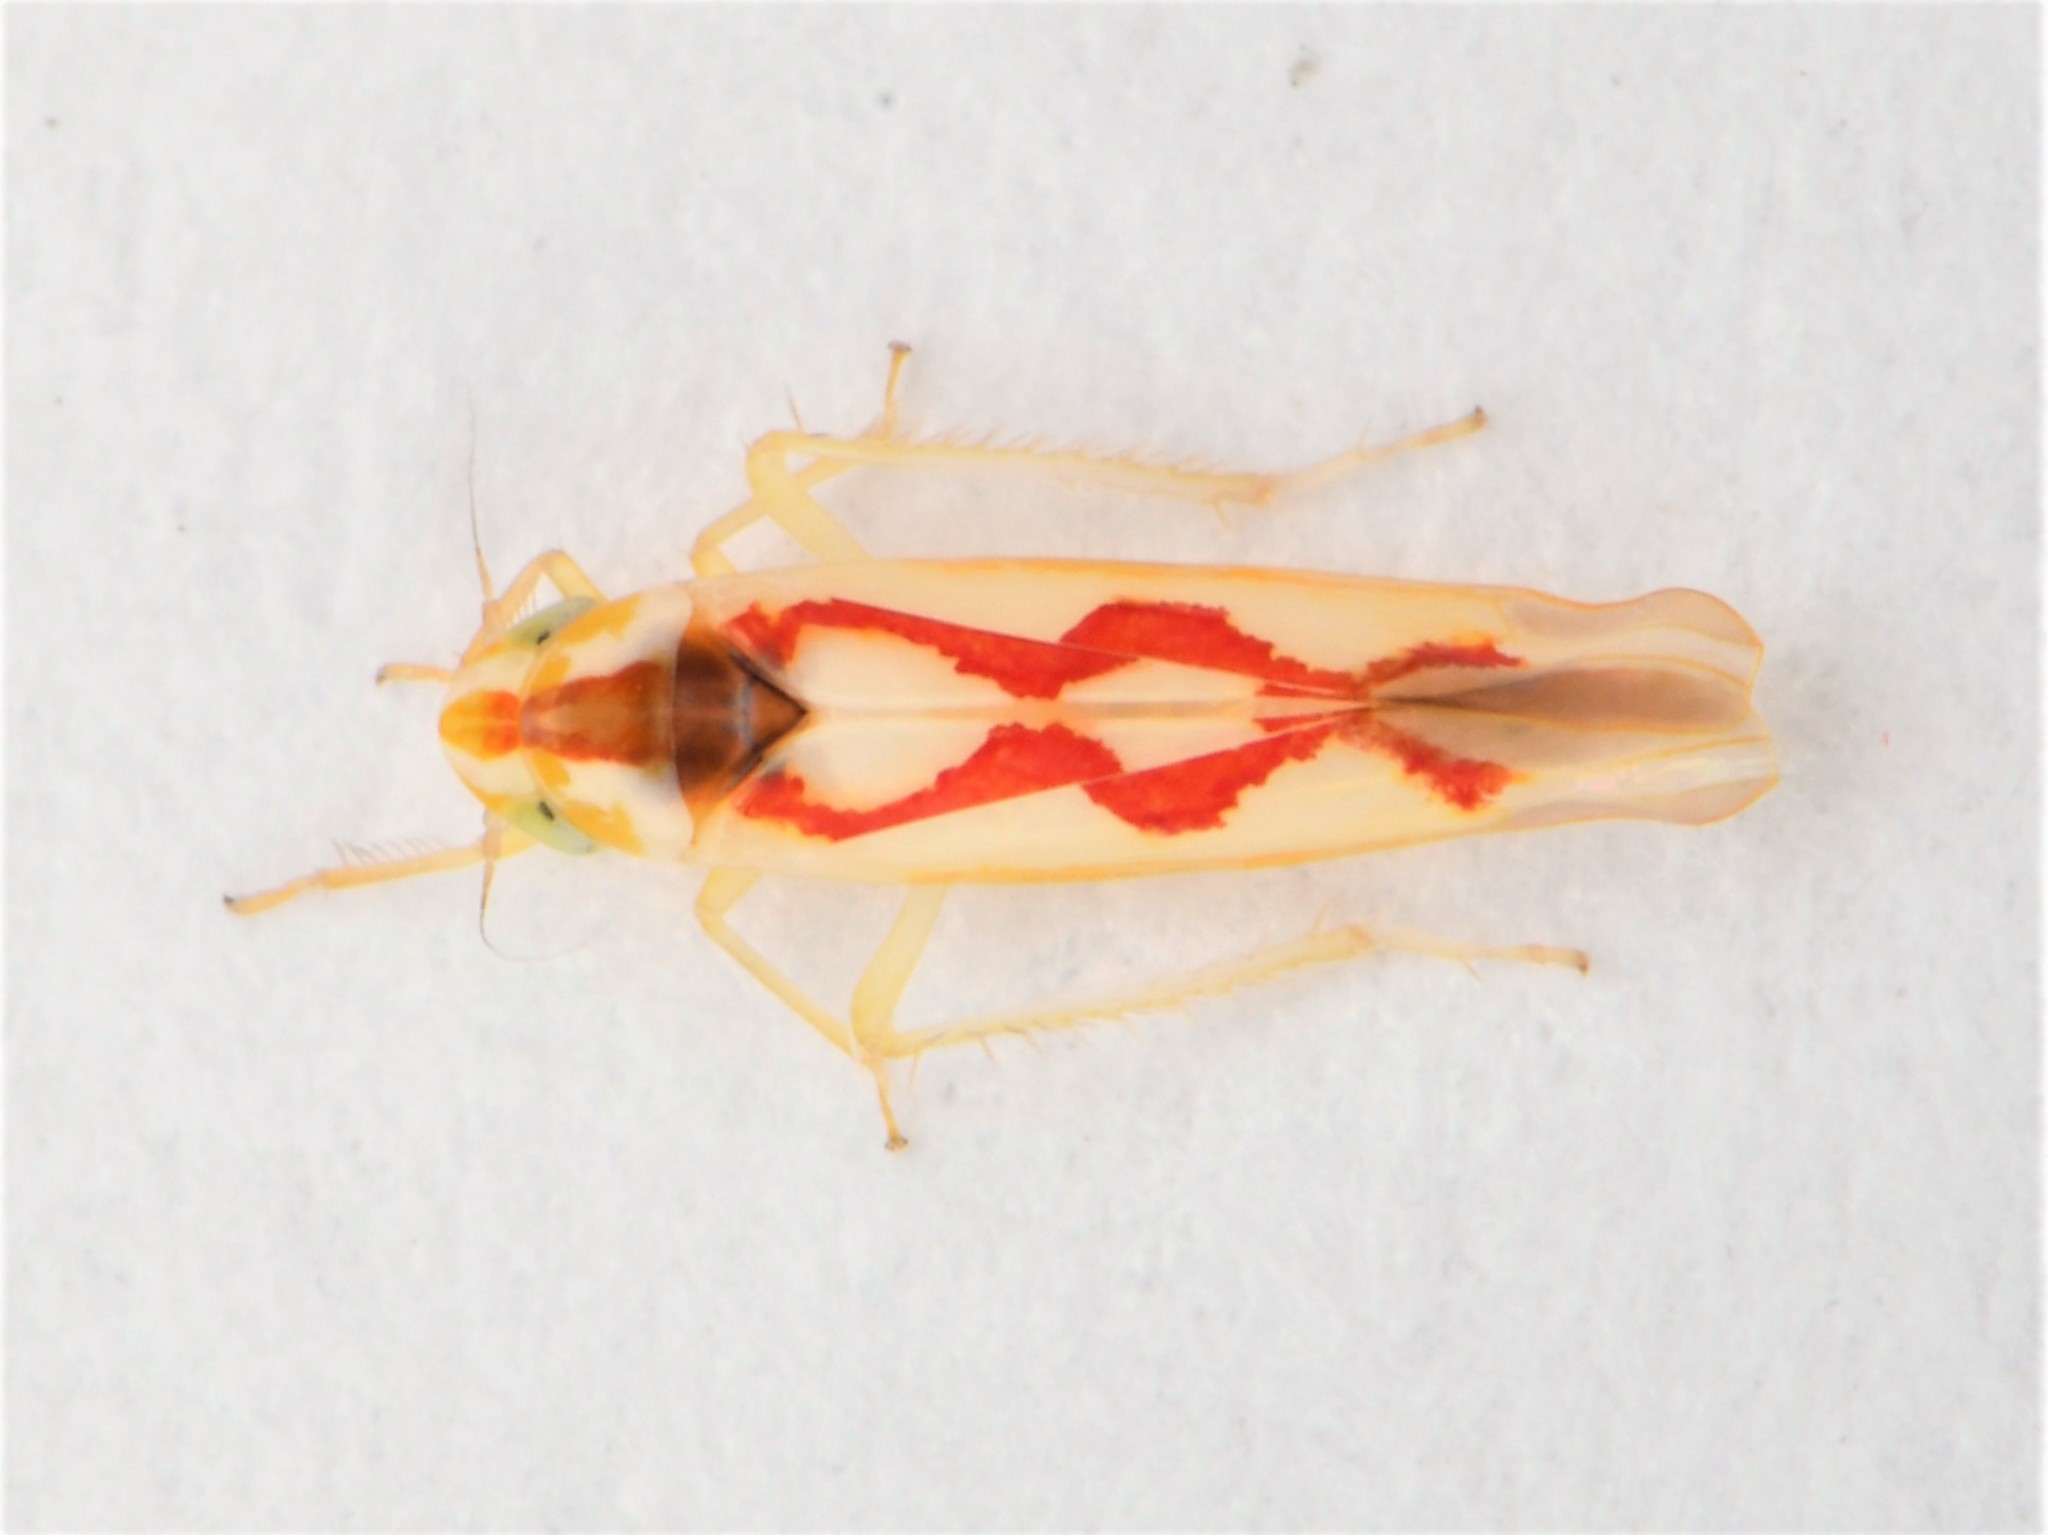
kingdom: Animalia
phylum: Arthropoda
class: Insecta
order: Hemiptera
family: Cicadellidae
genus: Zygina
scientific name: Zygina flammigera
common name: Leafhopper
